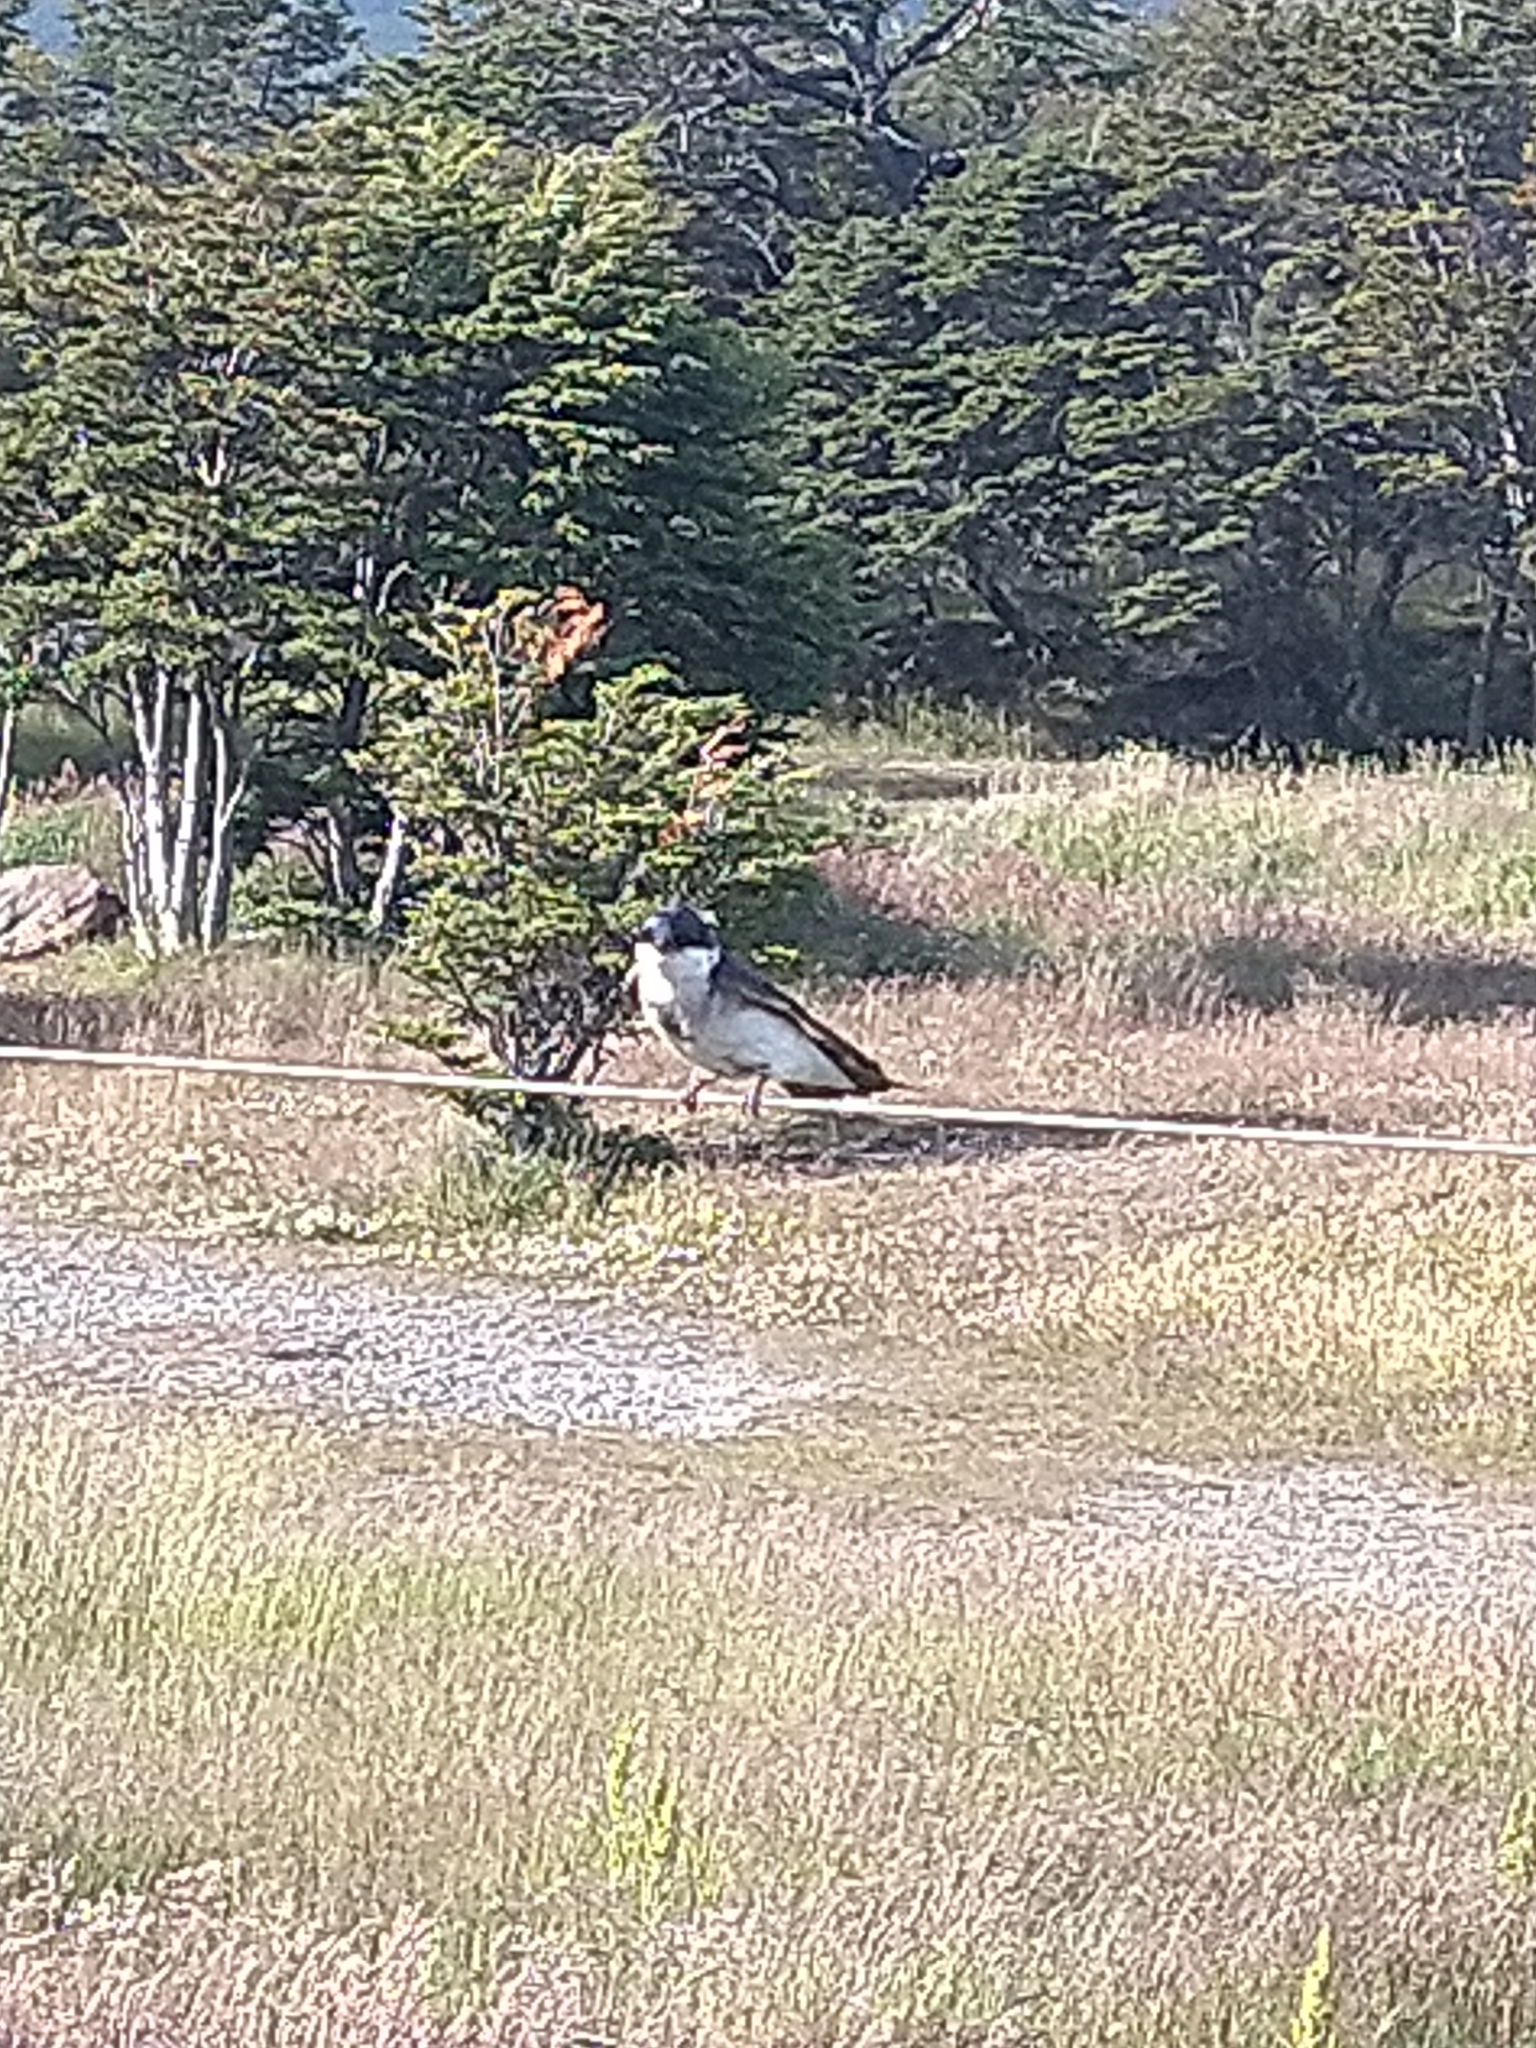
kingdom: Animalia
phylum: Chordata
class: Aves
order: Passeriformes
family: Hirundinidae
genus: Tachycineta
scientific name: Tachycineta leucopyga
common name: Chilean swallow
